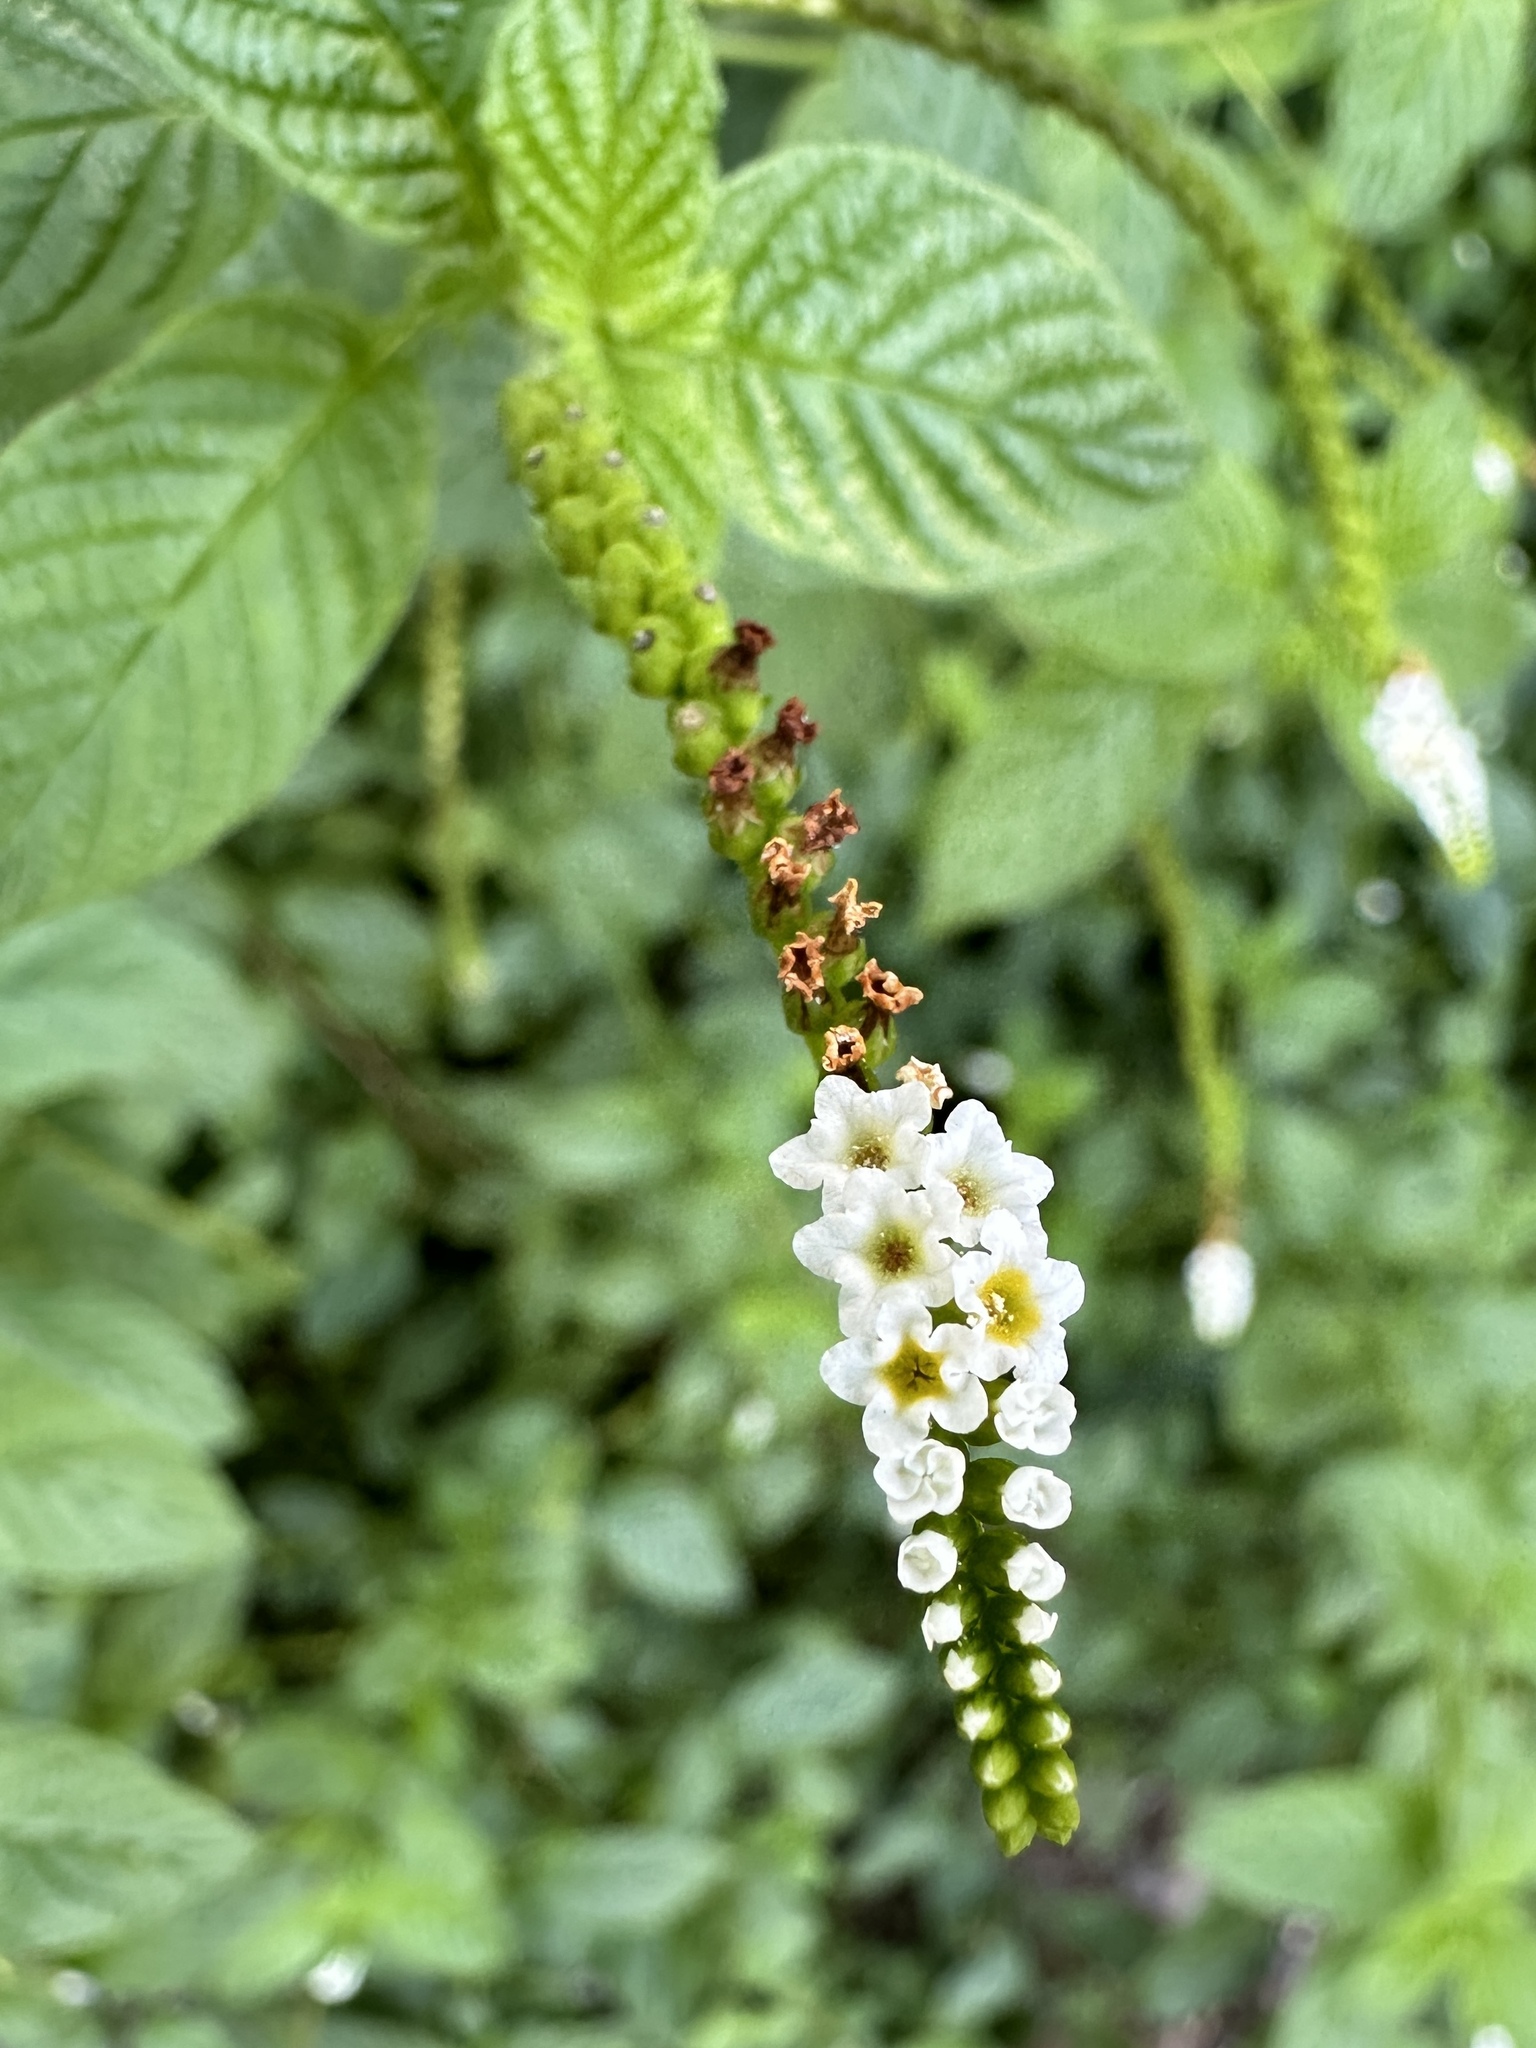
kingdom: Plantae
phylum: Tracheophyta
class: Magnoliopsida
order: Boraginales
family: Heliotropiaceae
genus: Heliotropium
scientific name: Heliotropium angiospermum
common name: Eye bright
